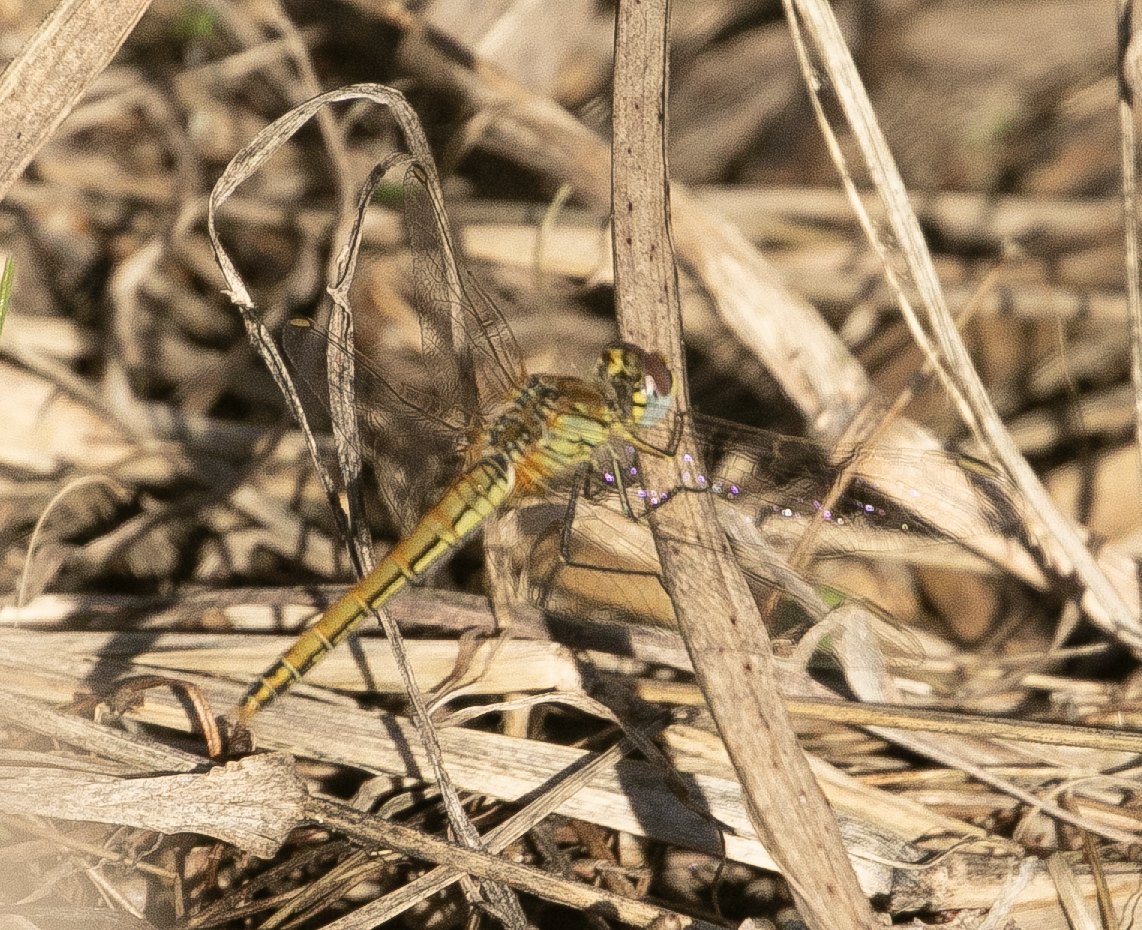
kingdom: Animalia
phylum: Arthropoda
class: Insecta
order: Odonata
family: Libellulidae
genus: Sympetrum
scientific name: Sympetrum fonscolombii
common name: Red-veined darter
